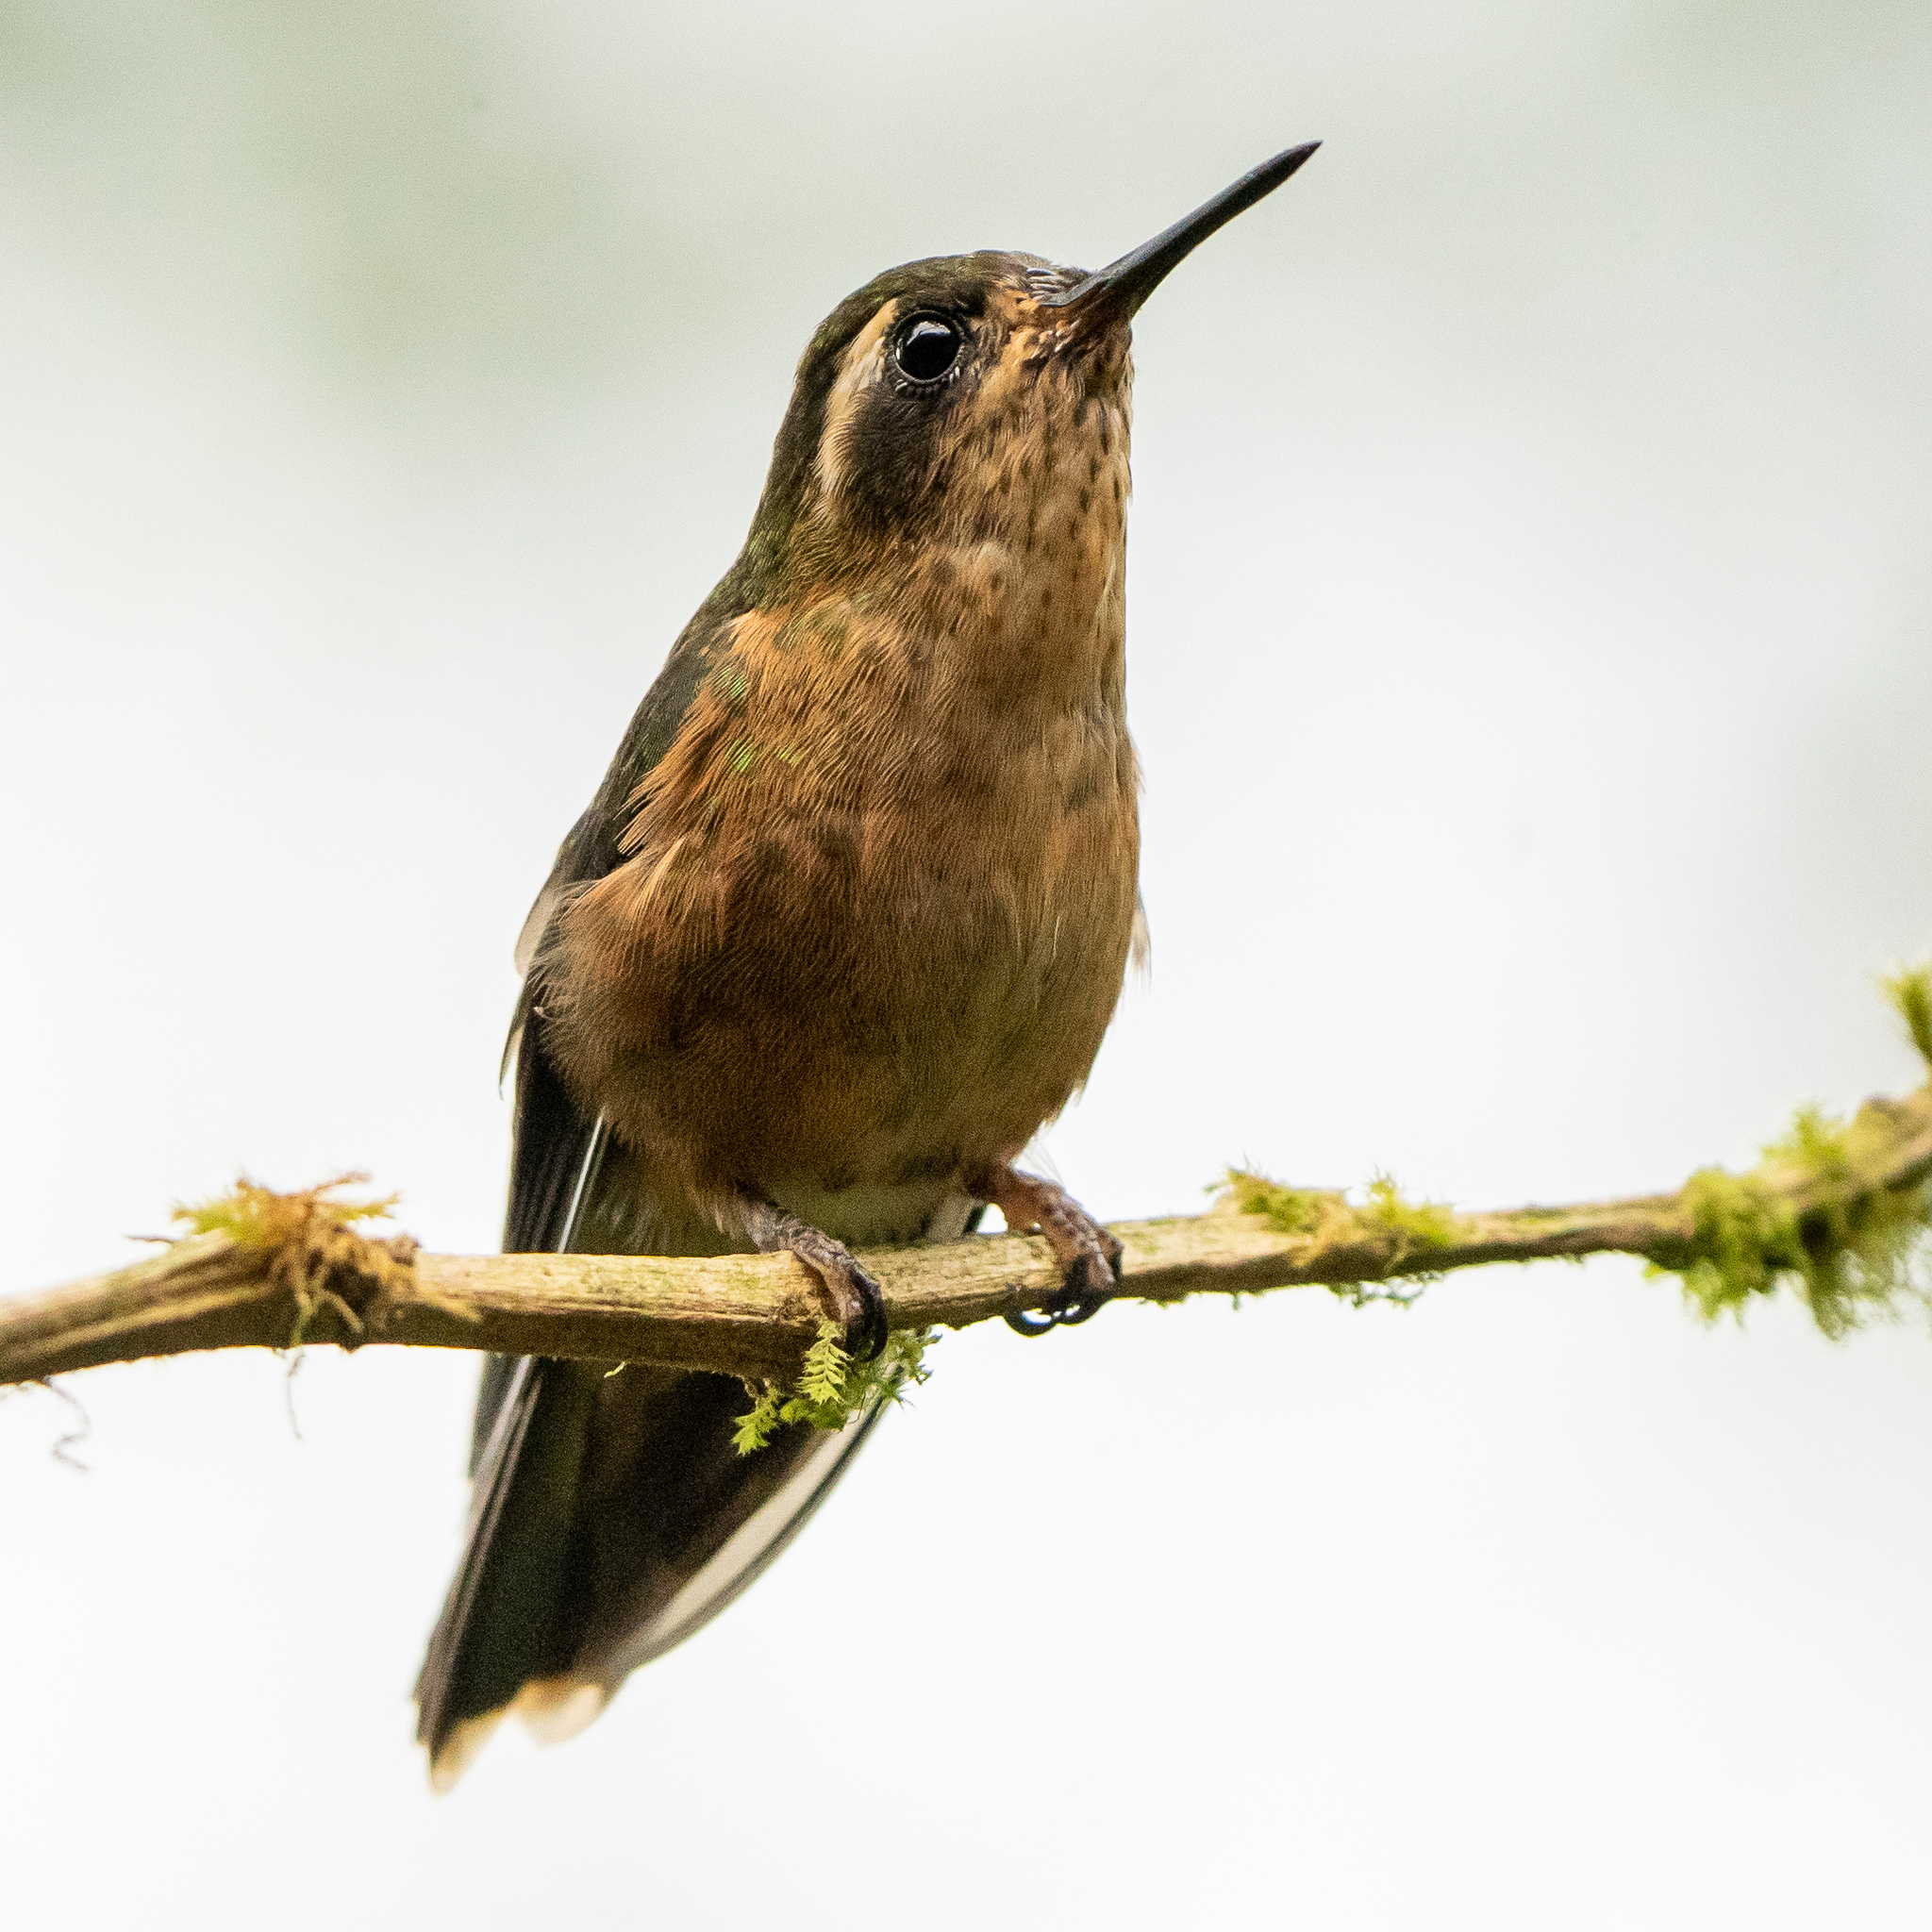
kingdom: Animalia
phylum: Chordata
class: Aves
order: Apodiformes
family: Trochilidae
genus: Adelomyia
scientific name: Adelomyia melanogenys
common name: Speckled hummingbird
